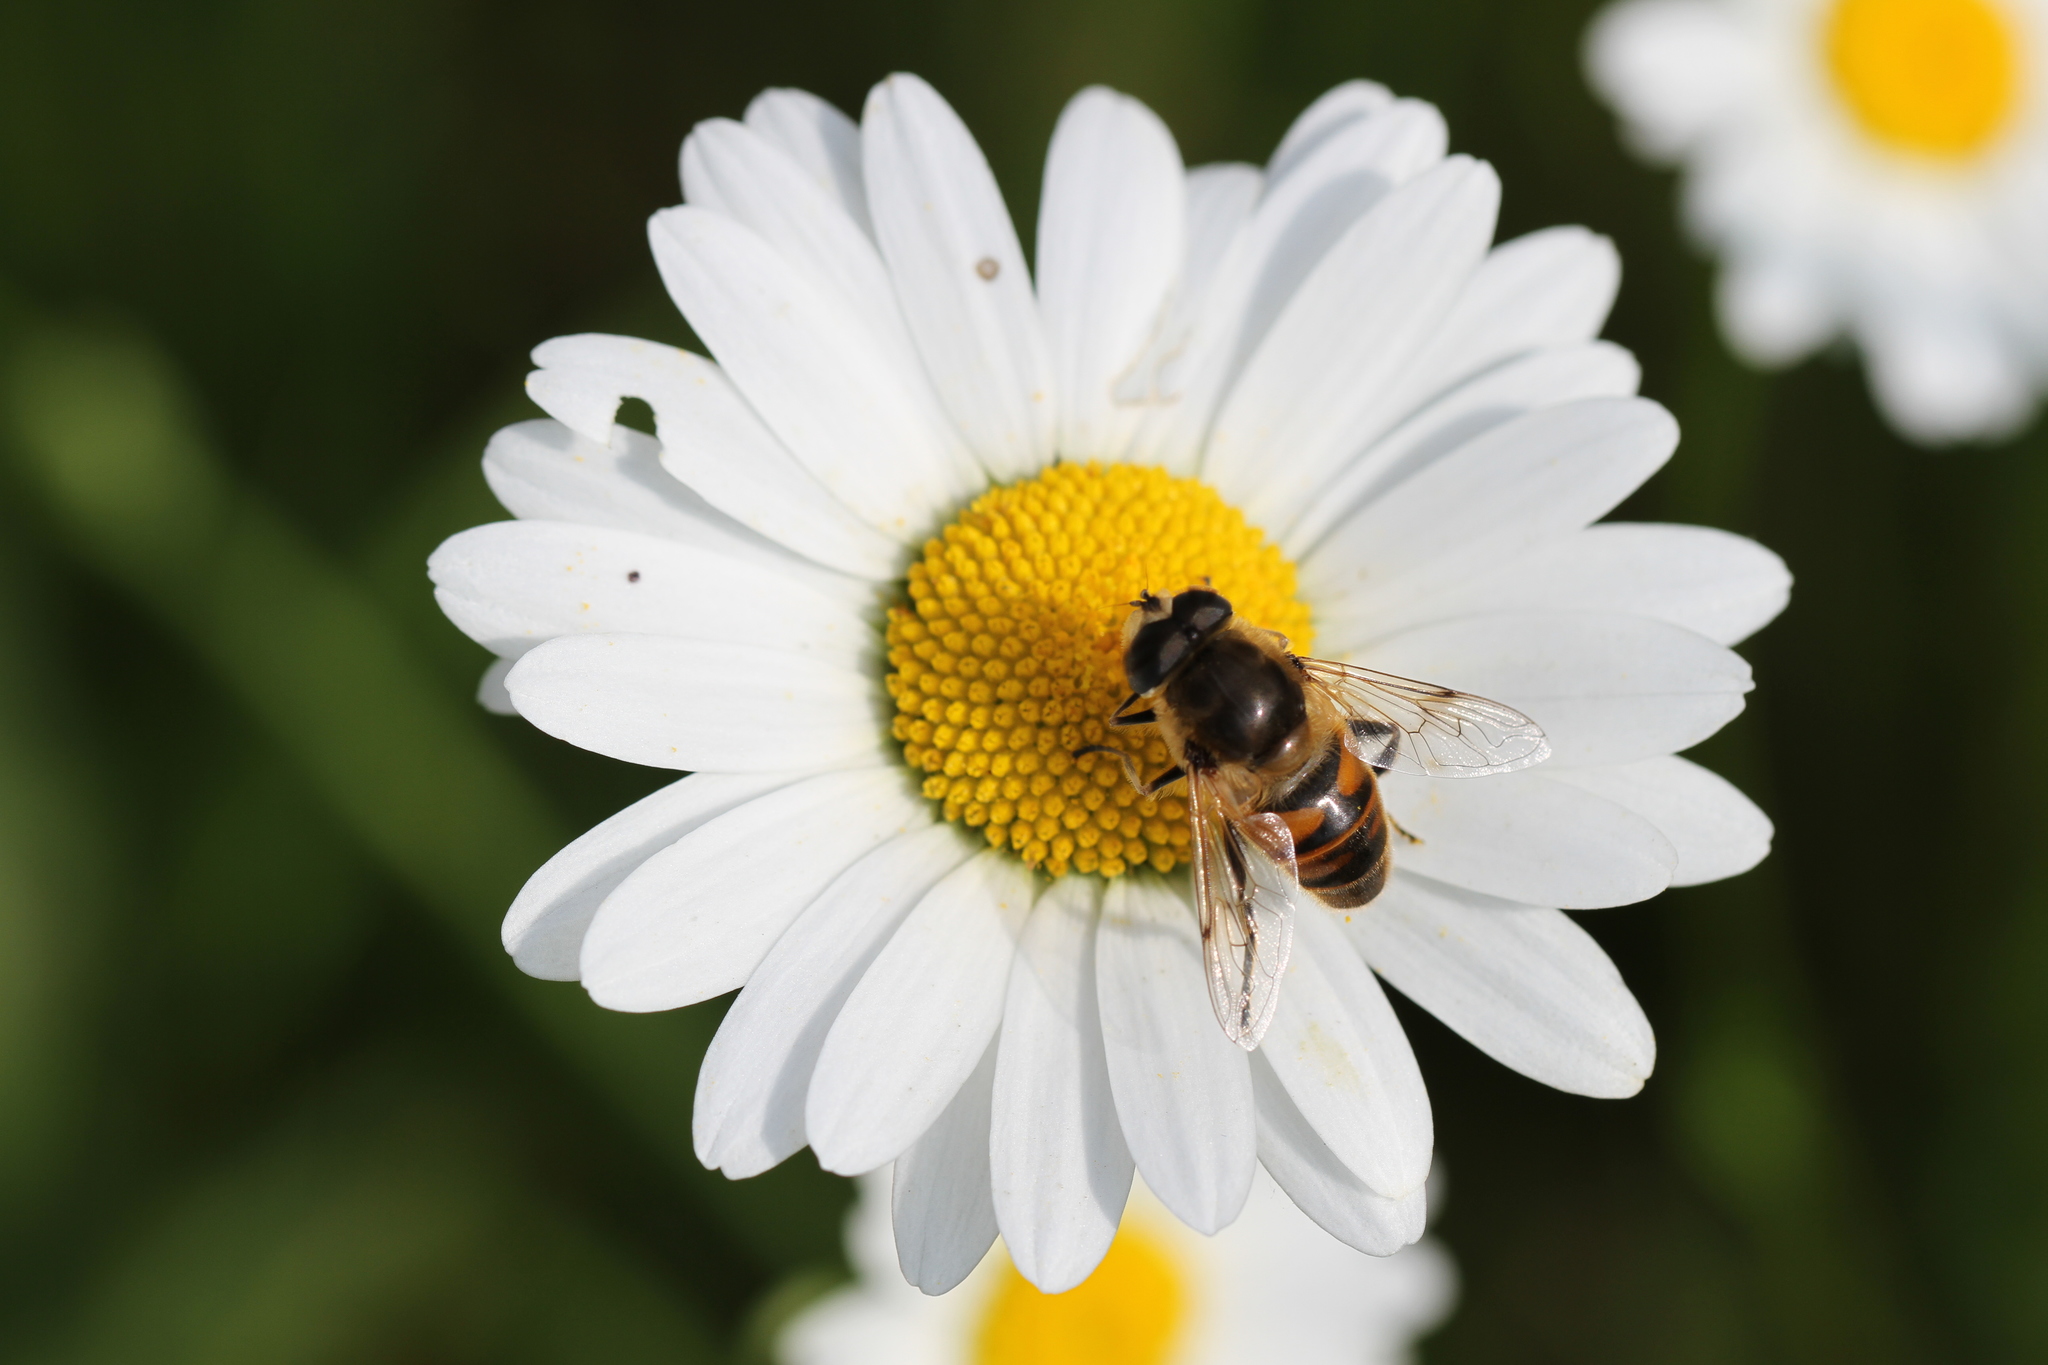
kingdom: Animalia
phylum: Arthropoda
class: Insecta
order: Diptera
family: Syrphidae
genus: Eristalis
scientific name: Eristalis tenax
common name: Drone fly
